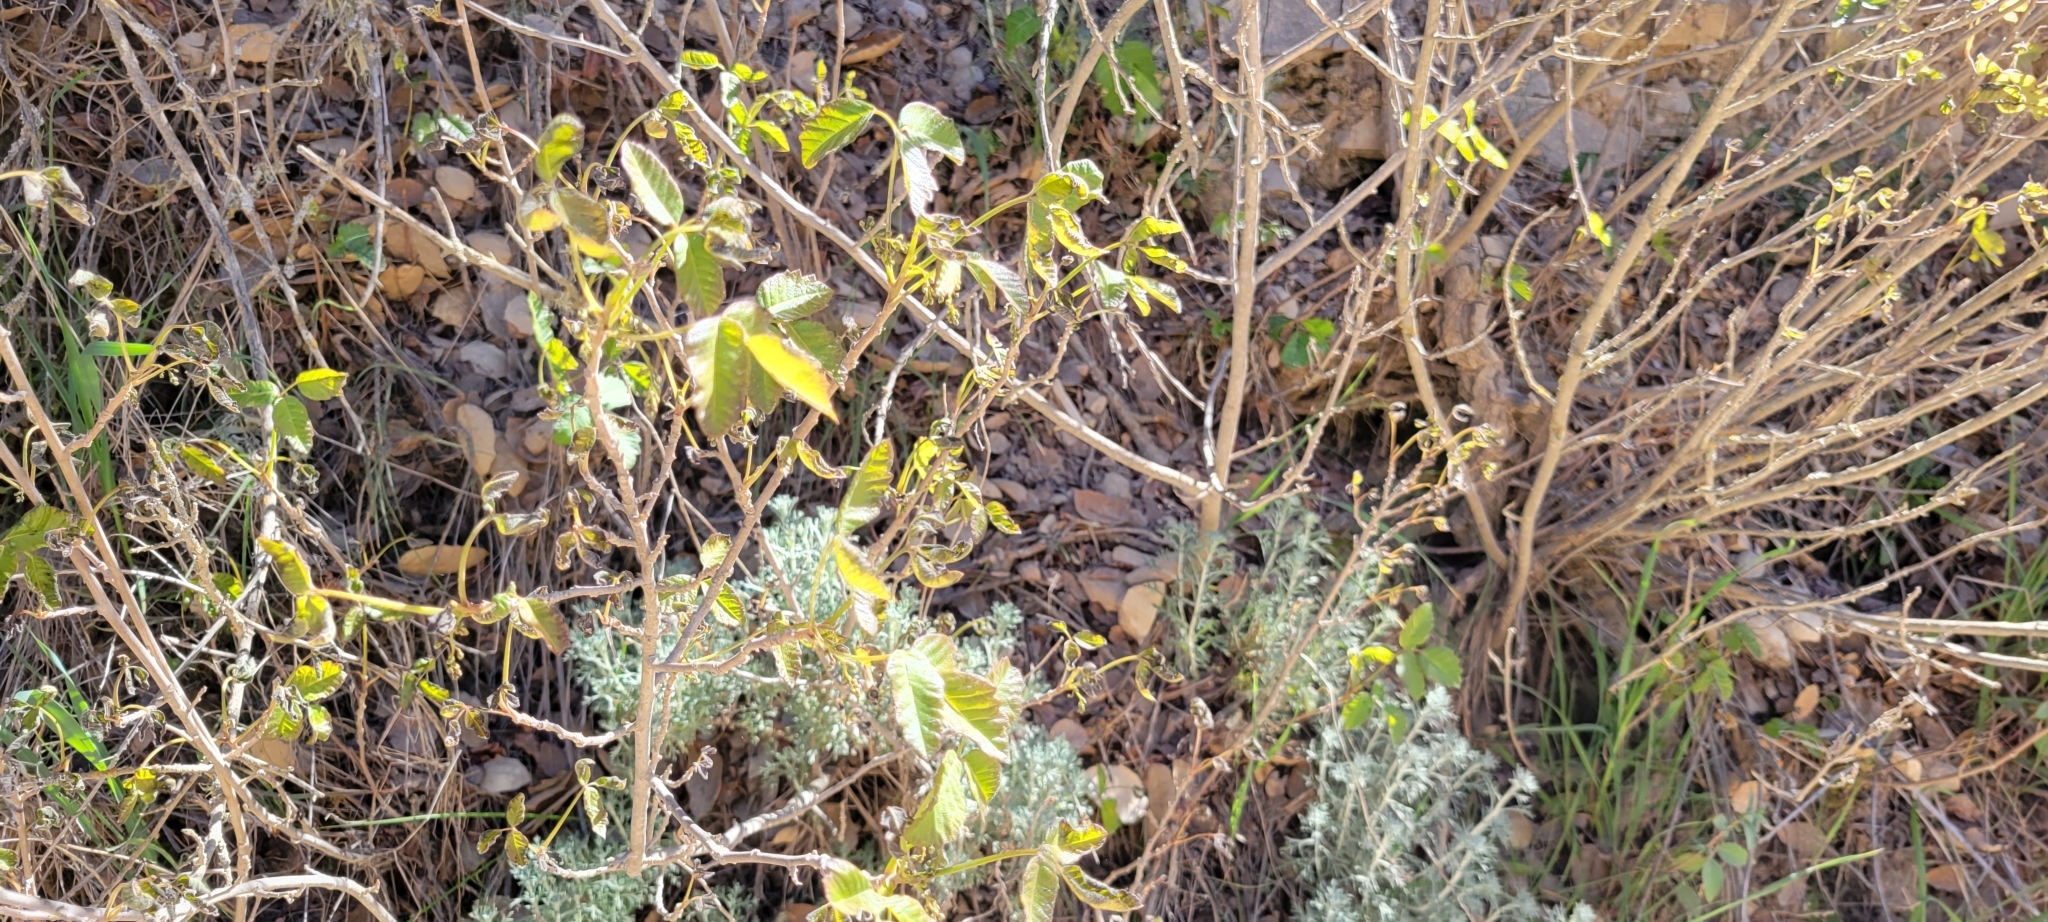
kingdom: Plantae
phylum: Tracheophyta
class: Magnoliopsida
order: Sapindales
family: Anacardiaceae
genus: Toxicodendron
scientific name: Toxicodendron diversilobum
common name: Pacific poison-oak
